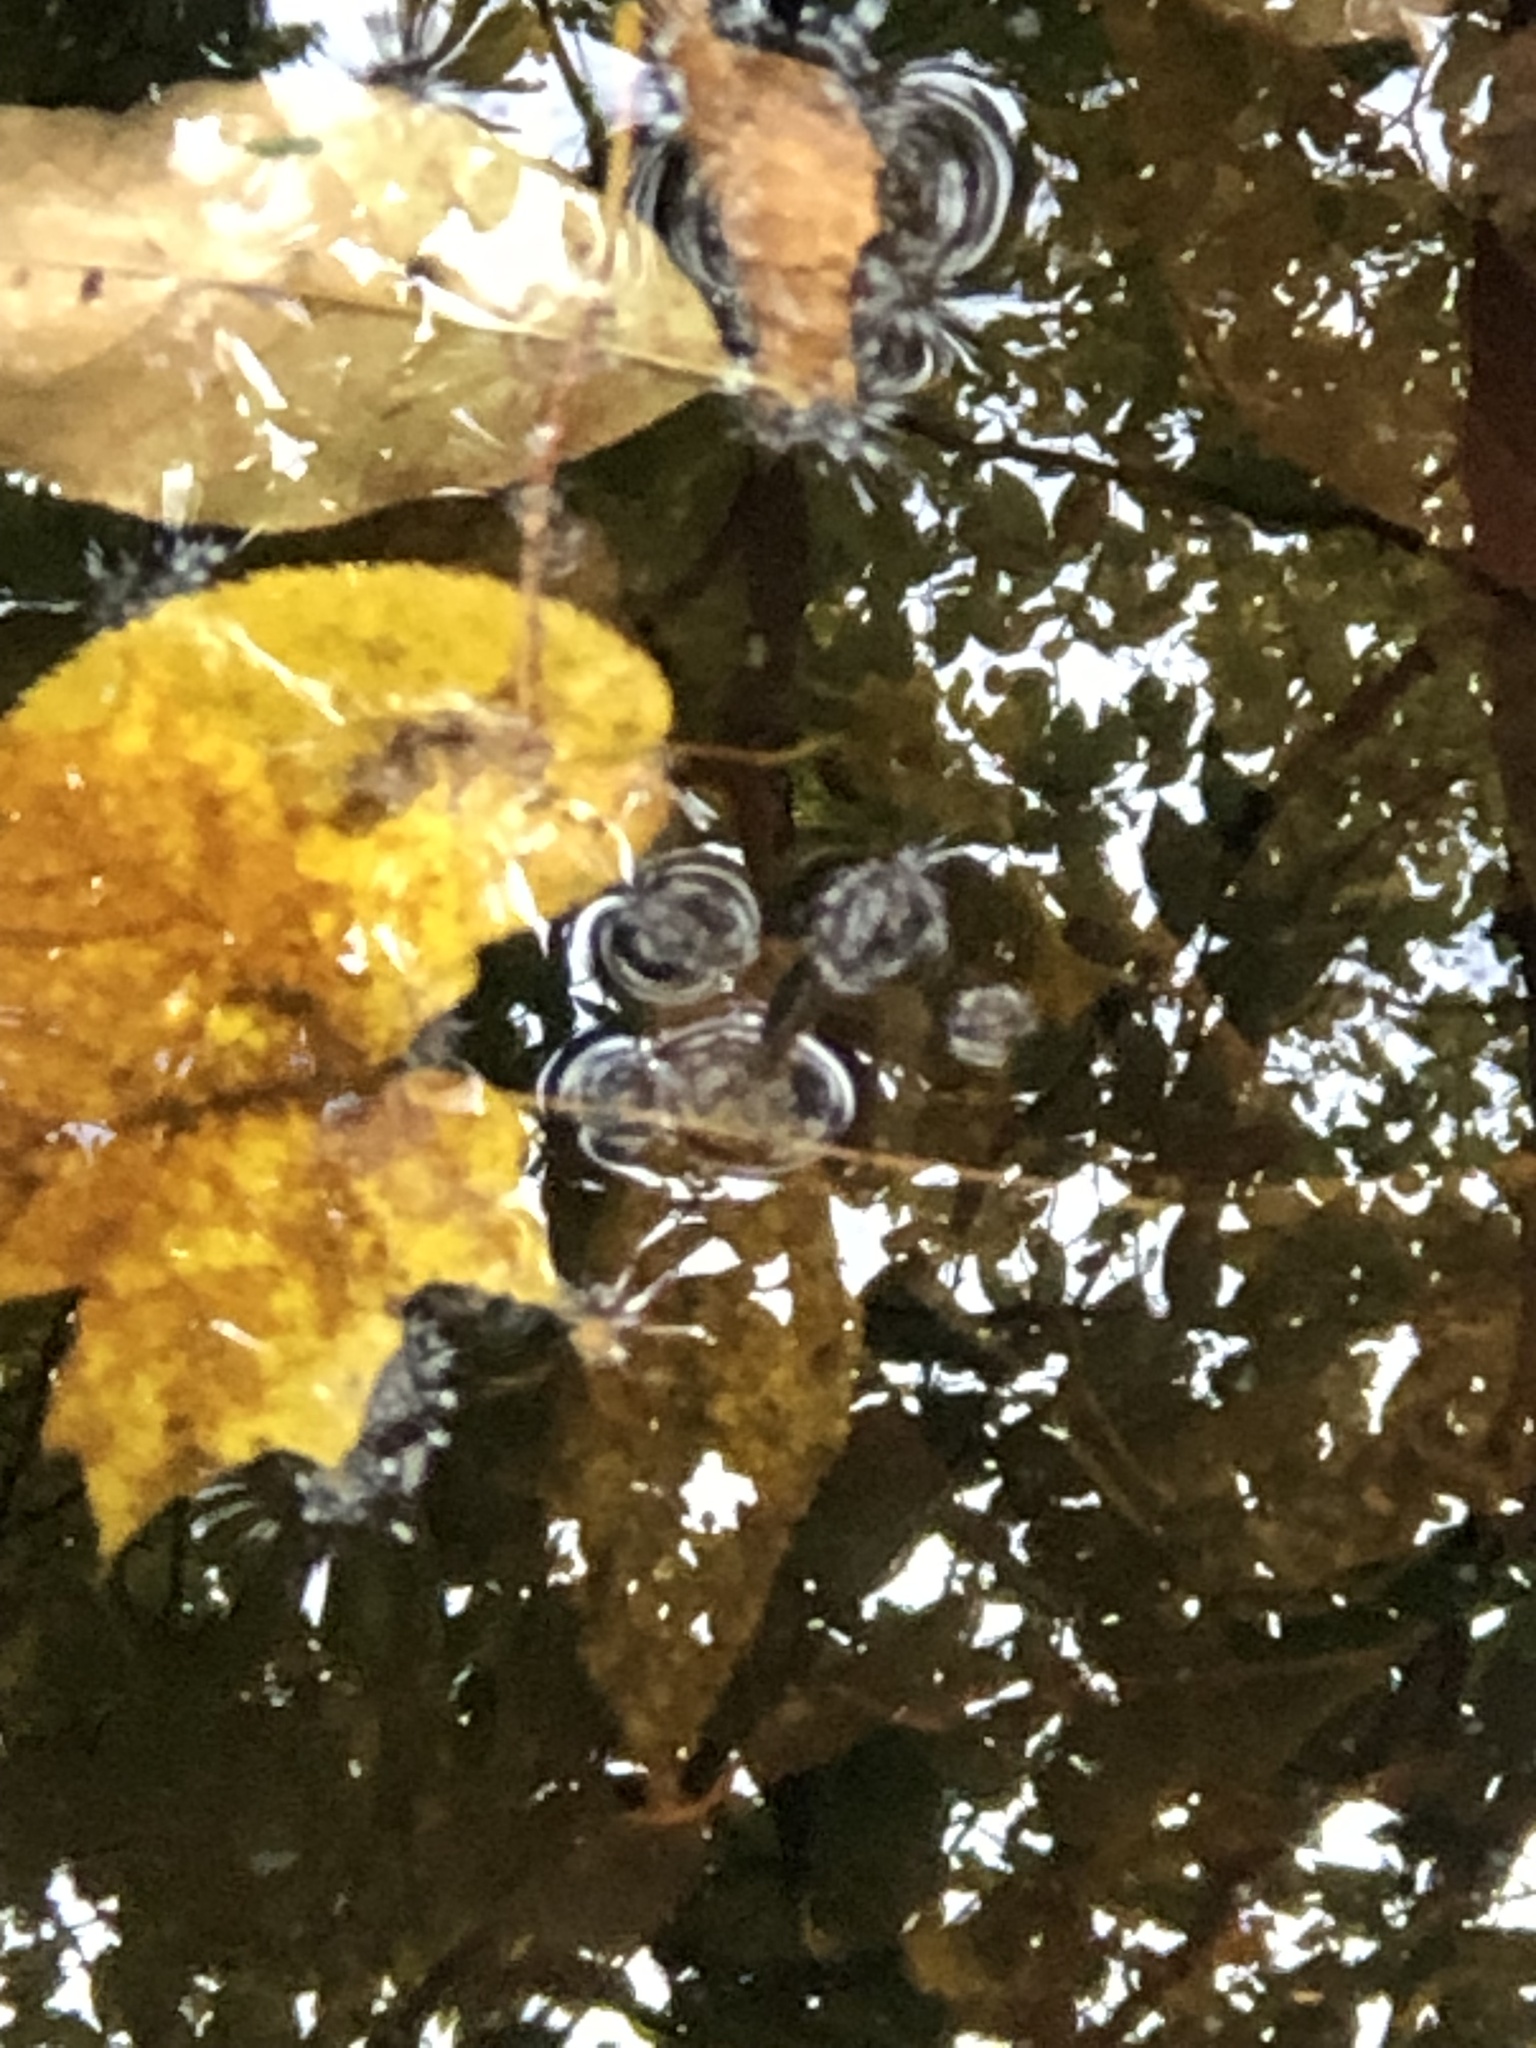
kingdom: Animalia
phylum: Arthropoda
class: Insecta
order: Hemiptera
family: Gerridae
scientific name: Gerridae
